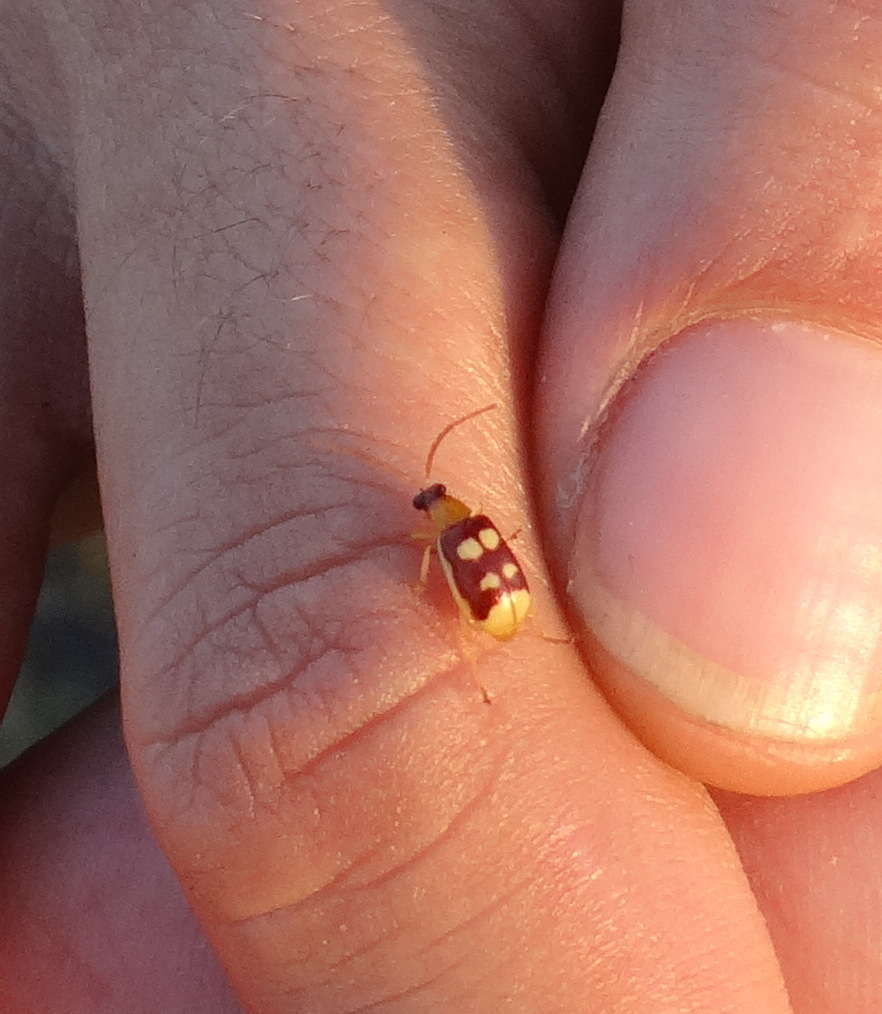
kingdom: Animalia
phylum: Arthropoda
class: Insecta
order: Coleoptera
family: Chrysomelidae
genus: Basiprionota
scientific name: Basiprionota sinuata
